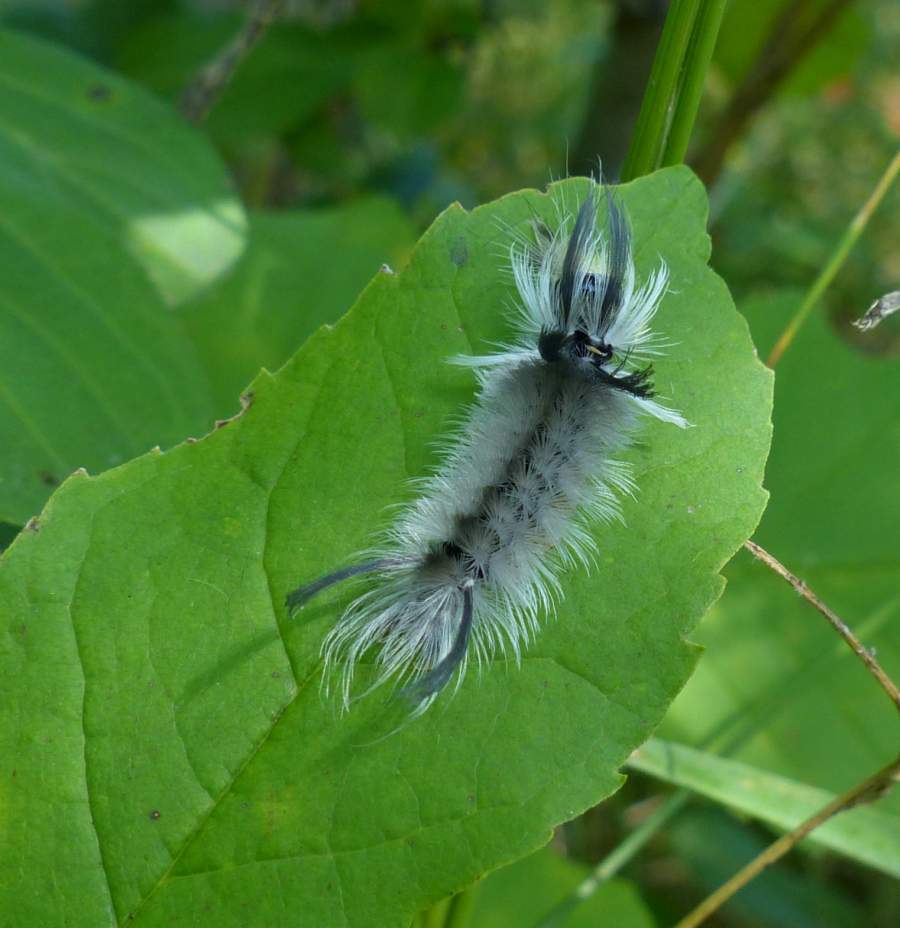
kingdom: Animalia
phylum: Arthropoda
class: Insecta
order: Lepidoptera
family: Erebidae
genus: Halysidota
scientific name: Halysidota tessellaris
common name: Banded tussock moth
